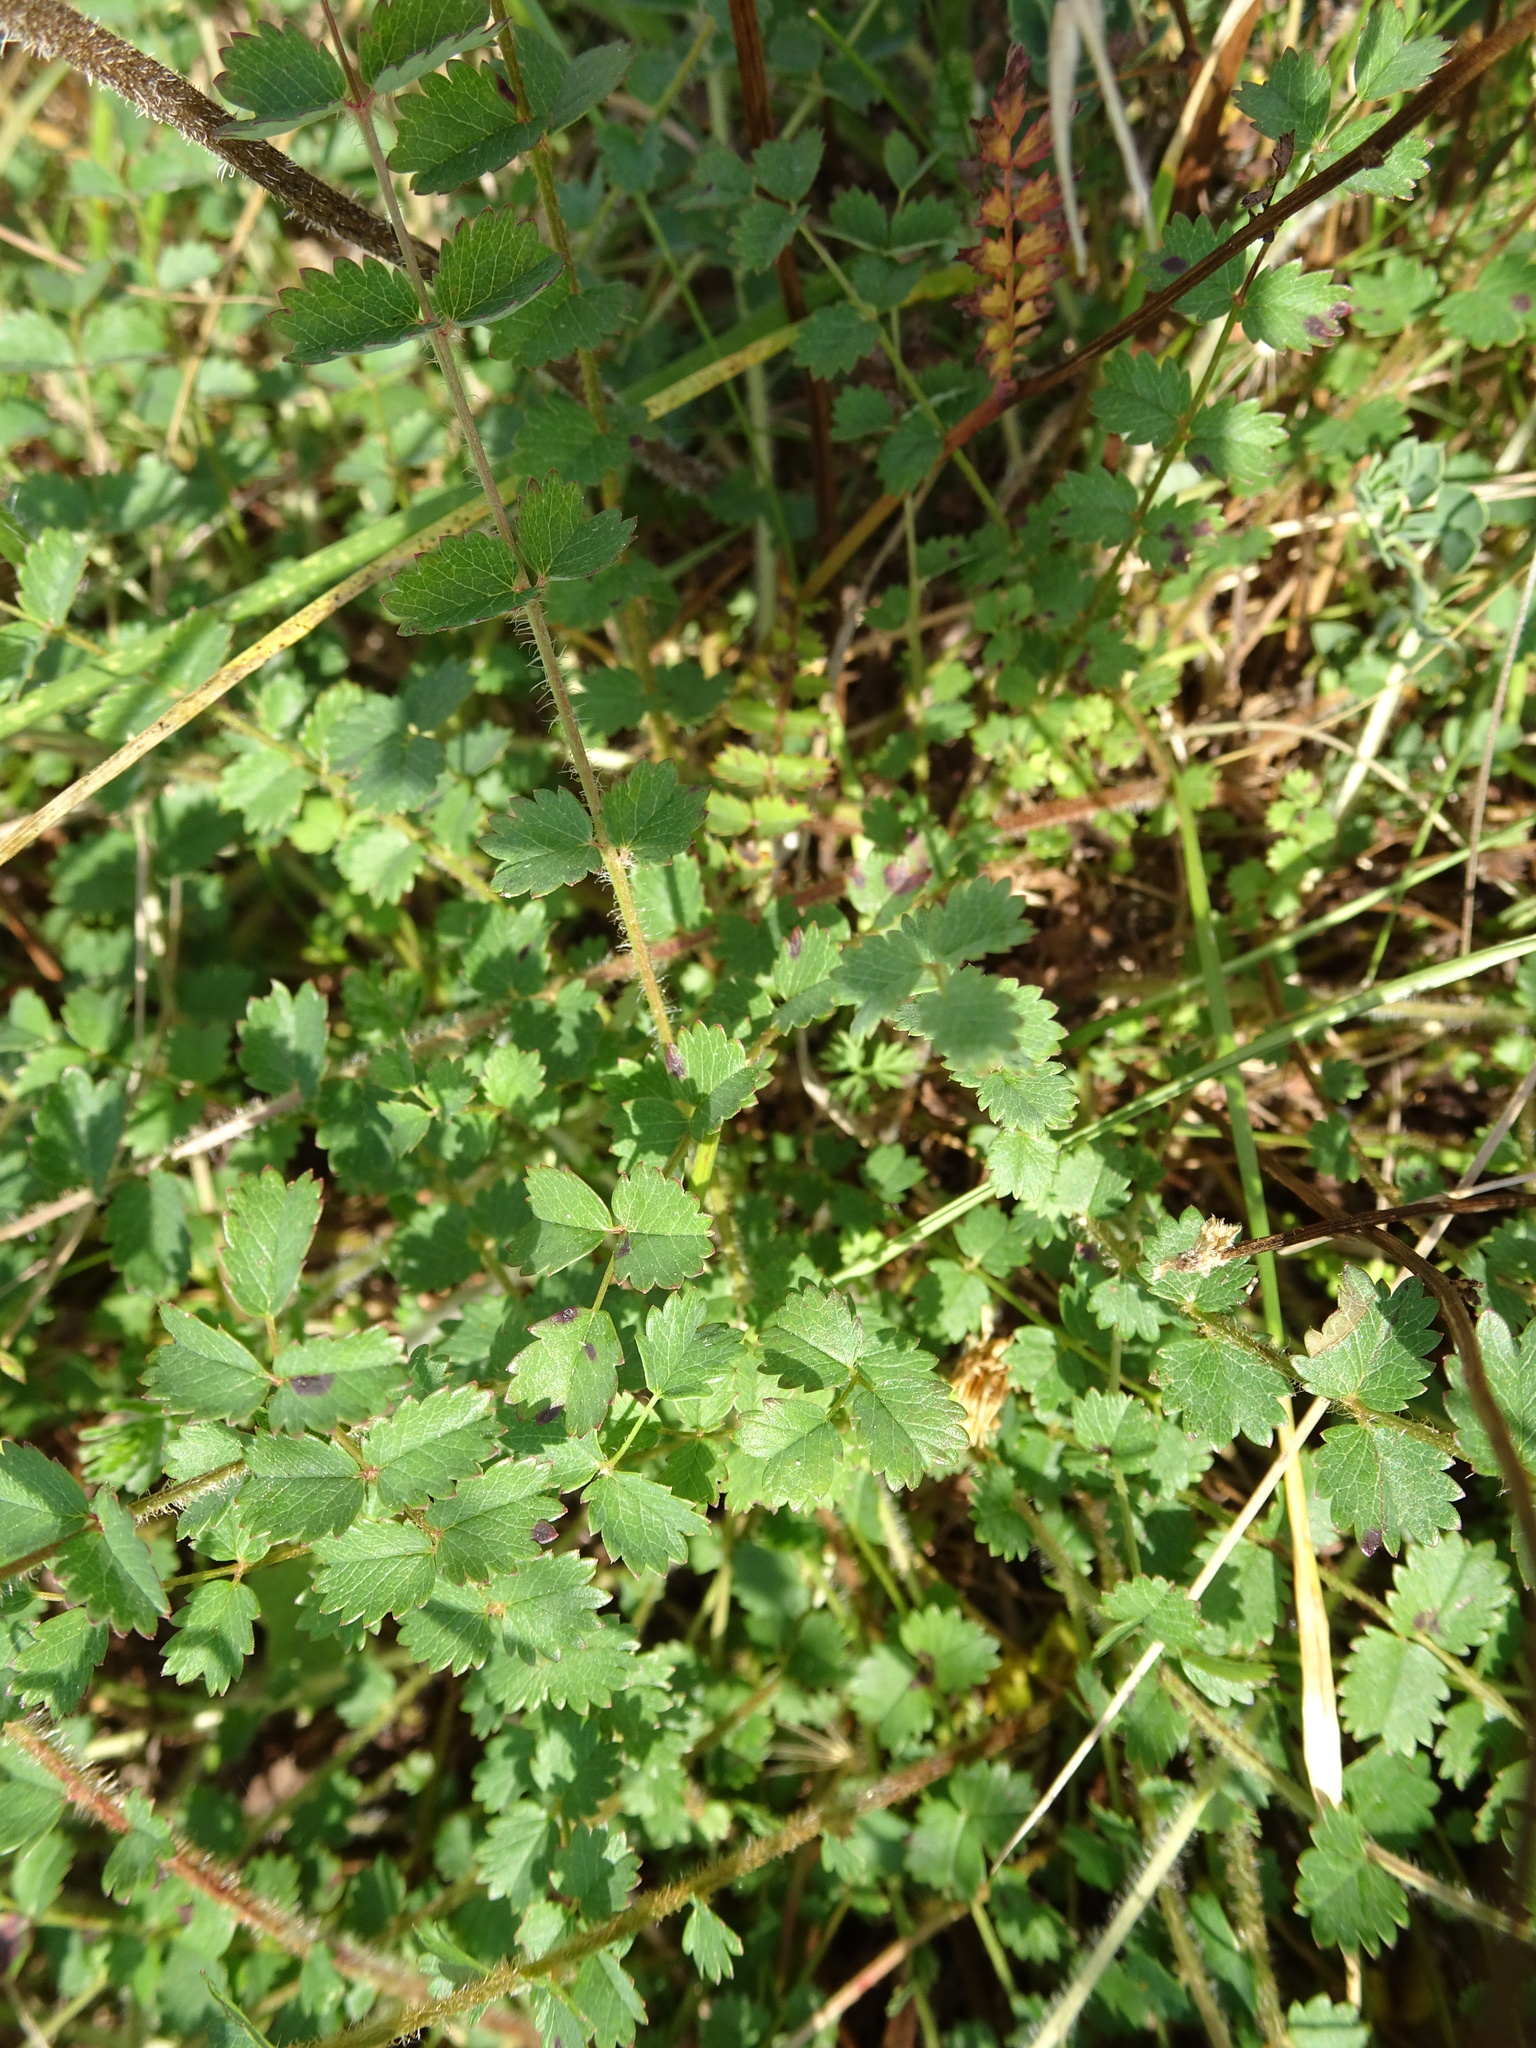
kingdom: Plantae
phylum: Tracheophyta
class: Magnoliopsida
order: Rosales
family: Rosaceae
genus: Poterium
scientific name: Poterium sanguisorba
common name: Salad burnet
